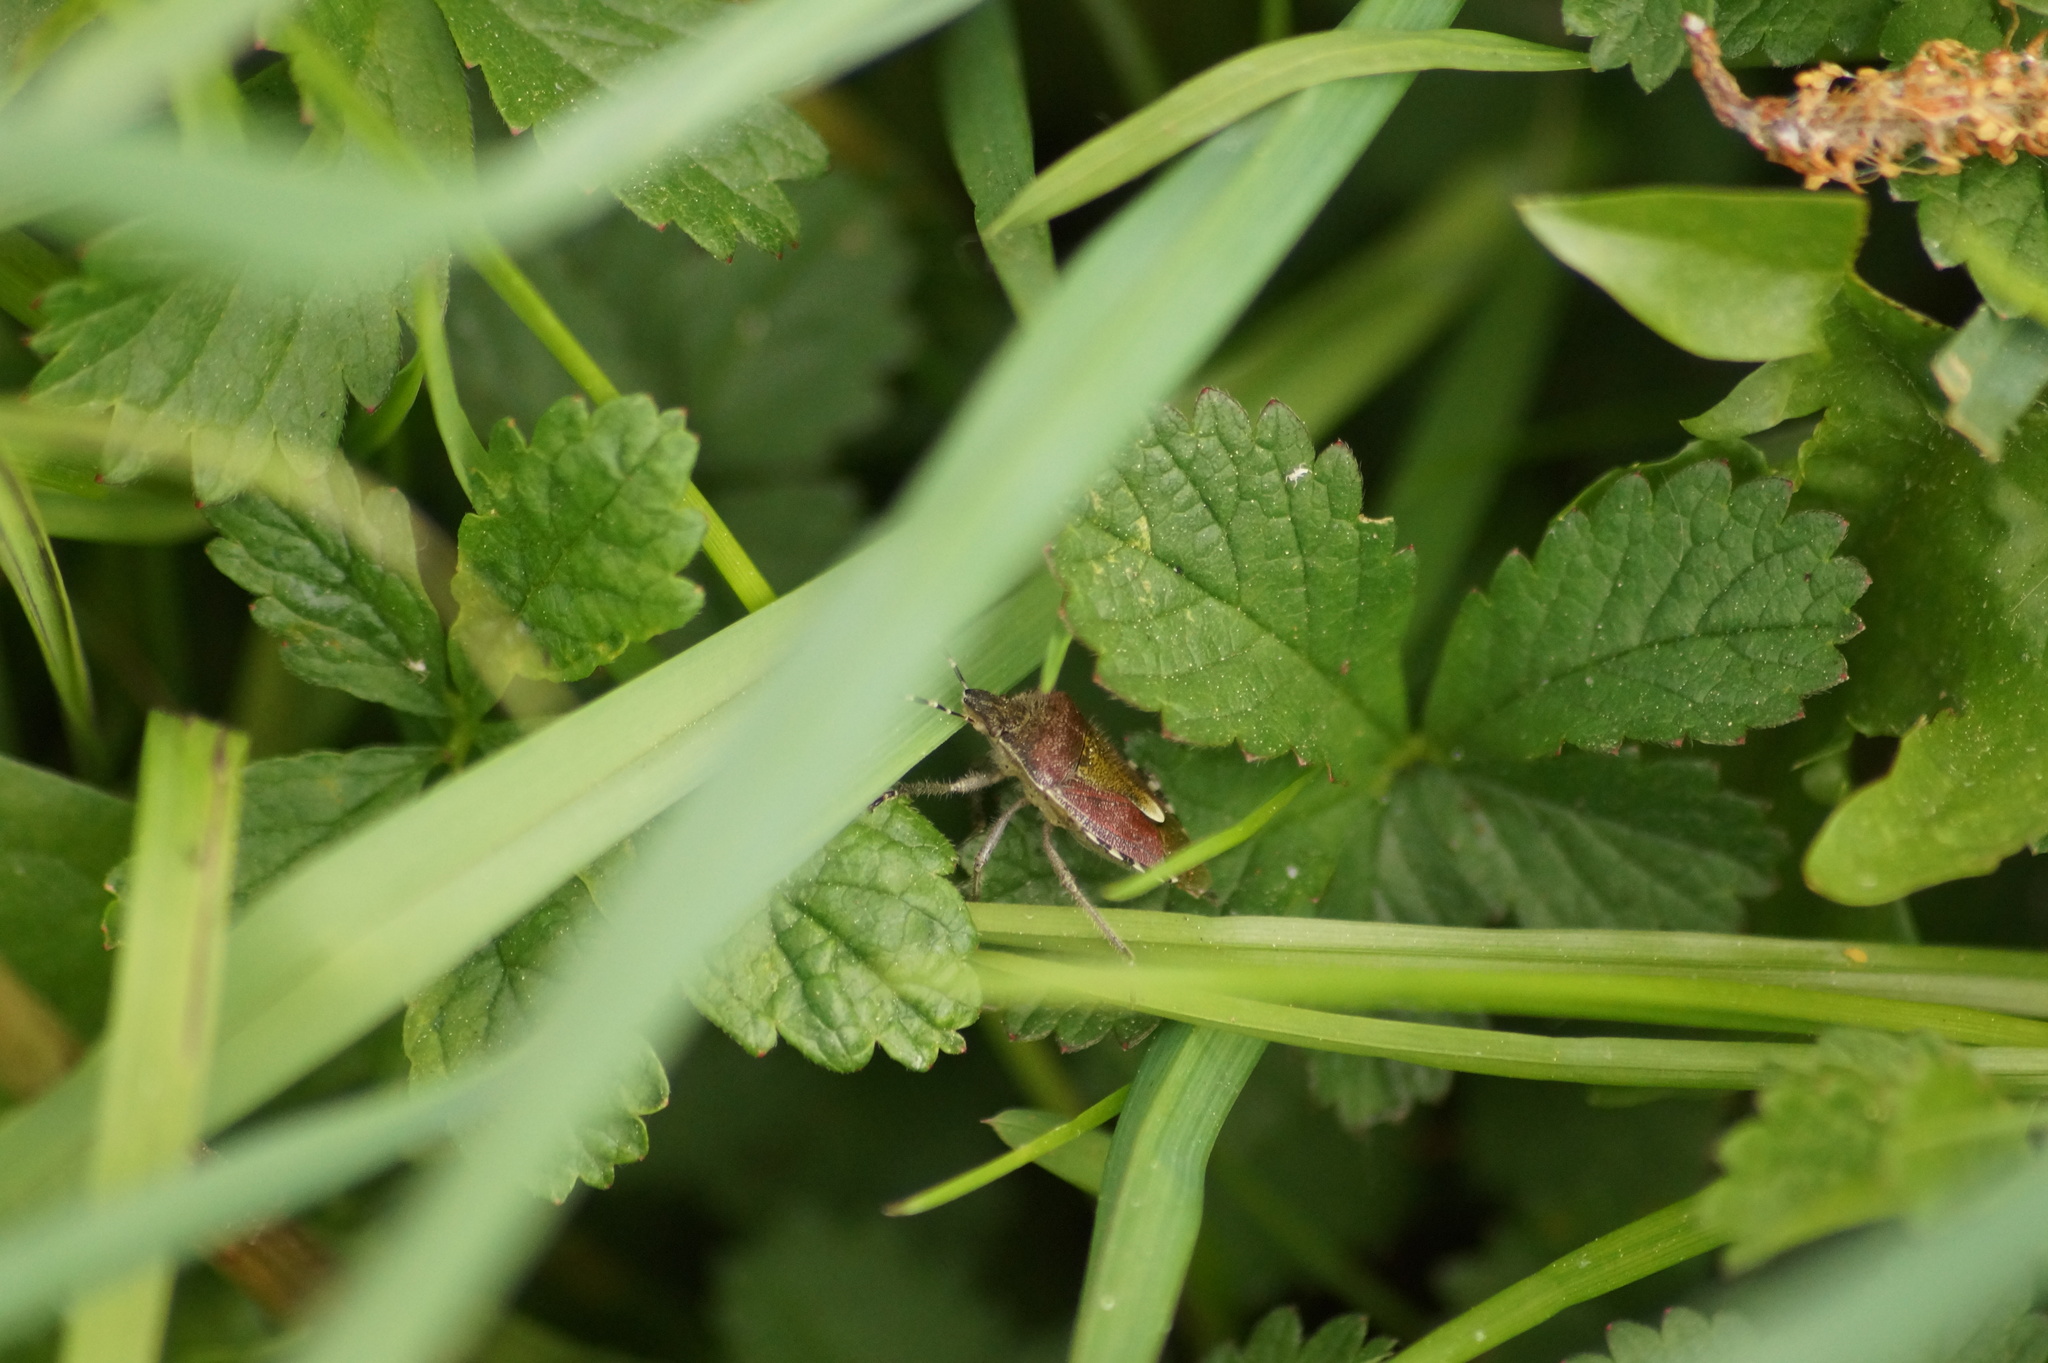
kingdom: Animalia
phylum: Arthropoda
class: Insecta
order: Hemiptera
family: Pentatomidae
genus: Dolycoris
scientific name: Dolycoris baccarum
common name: Sloe bug
